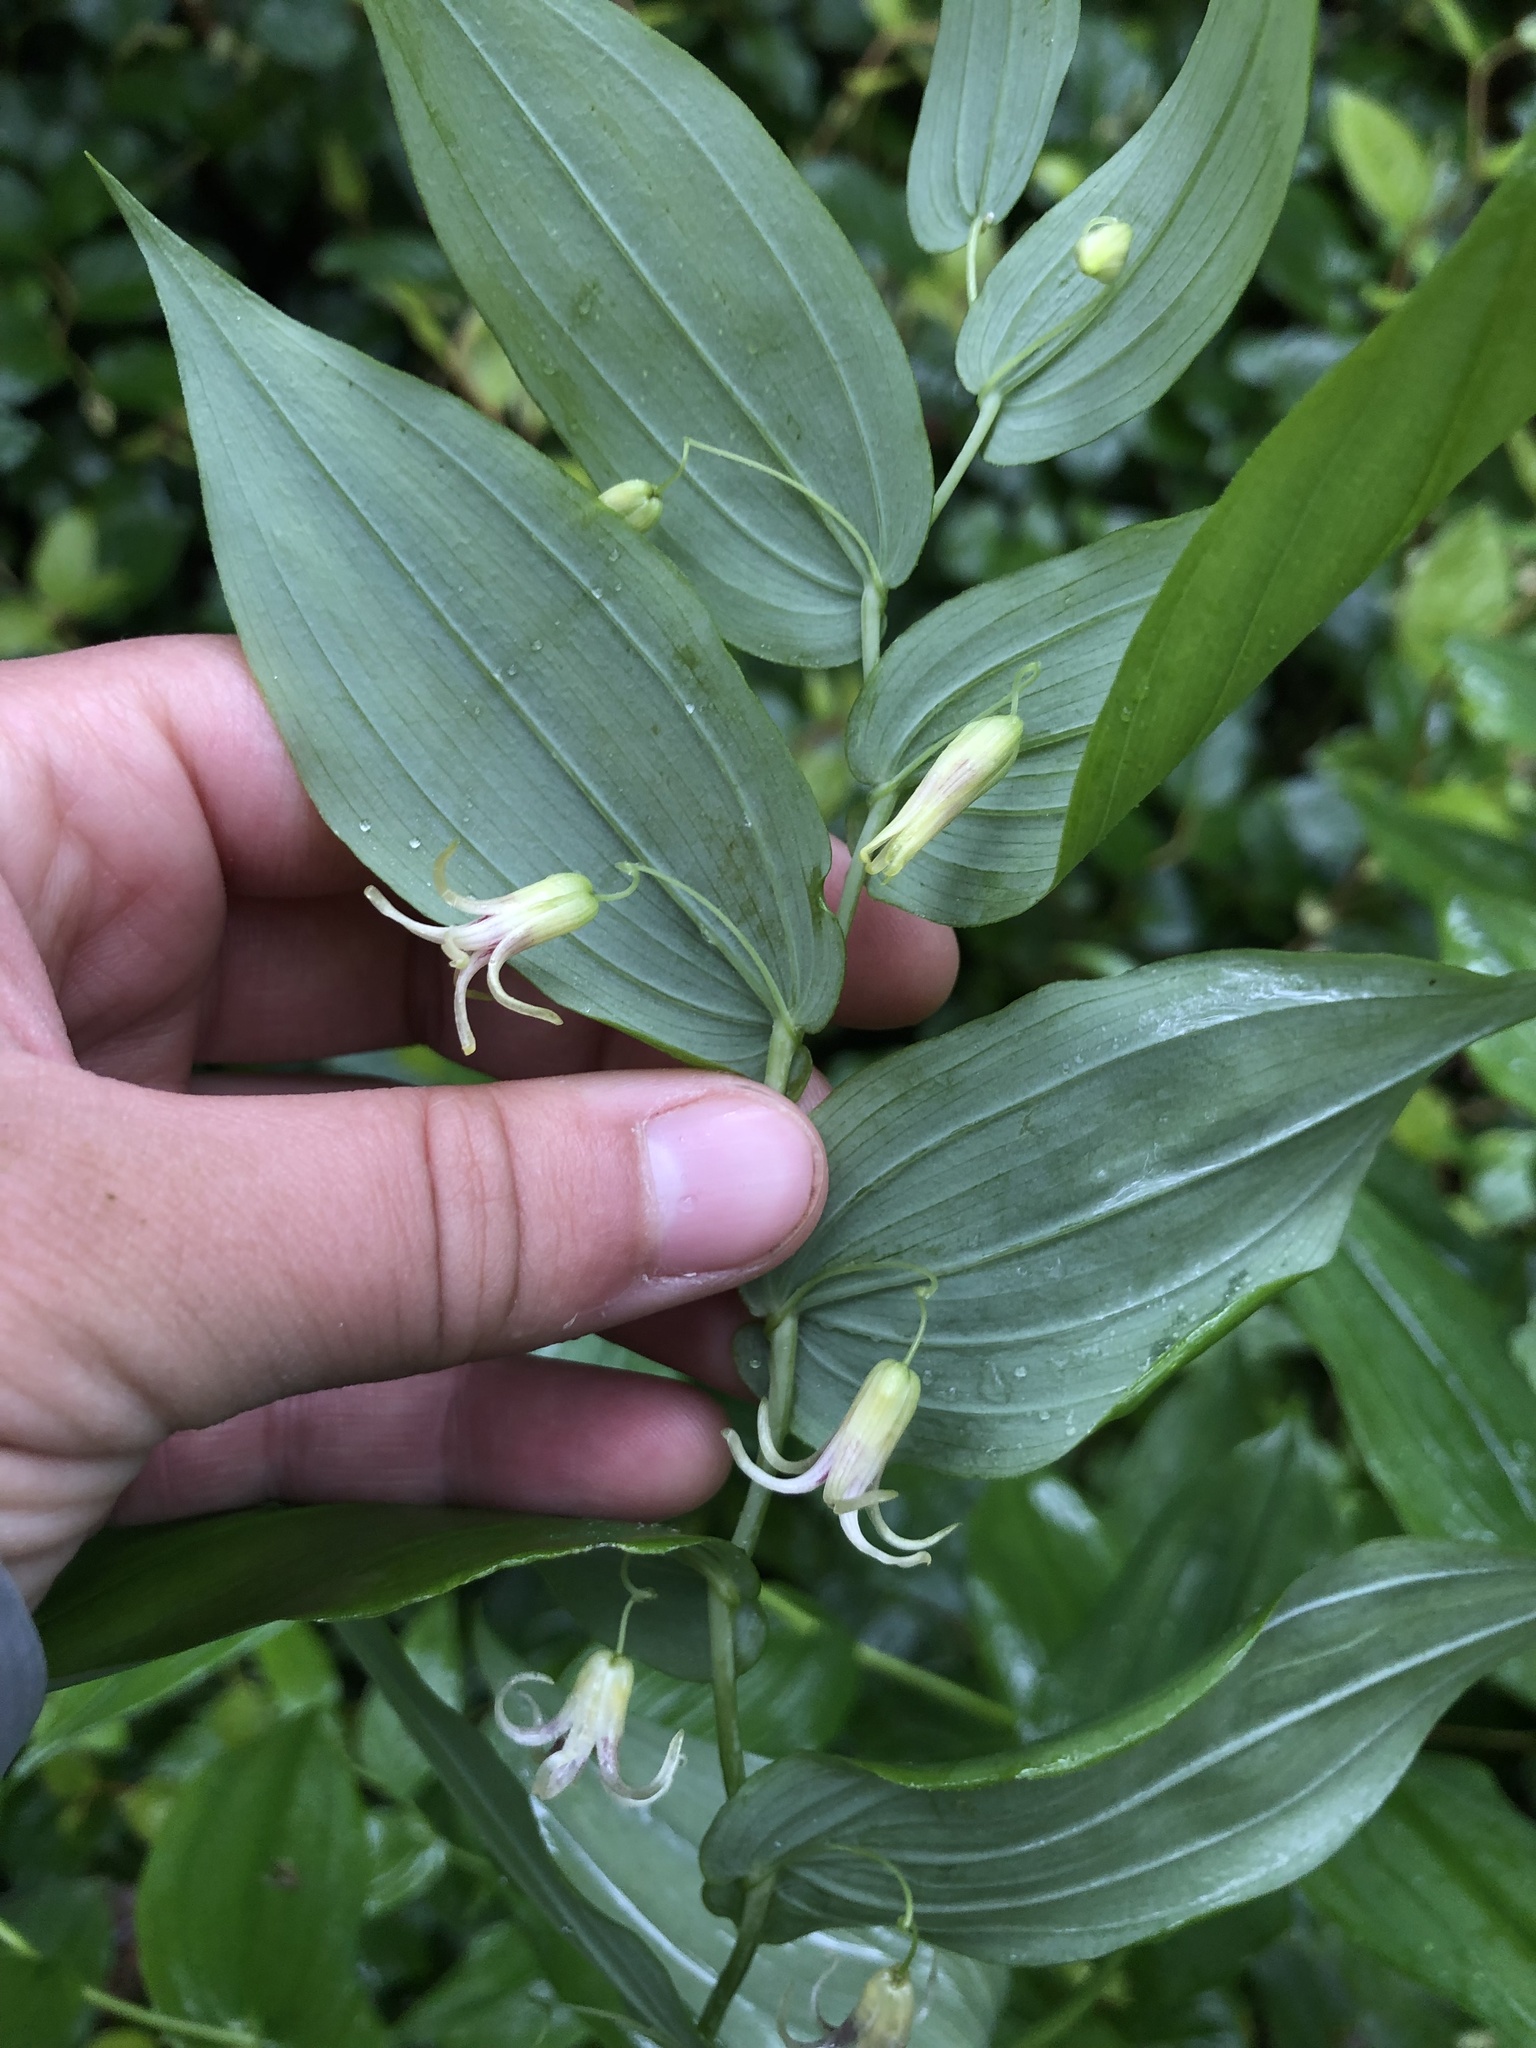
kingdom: Plantae
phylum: Tracheophyta
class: Liliopsida
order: Liliales
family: Liliaceae
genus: Streptopus
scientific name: Streptopus amplexifolius
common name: Clasp twisted stalk
